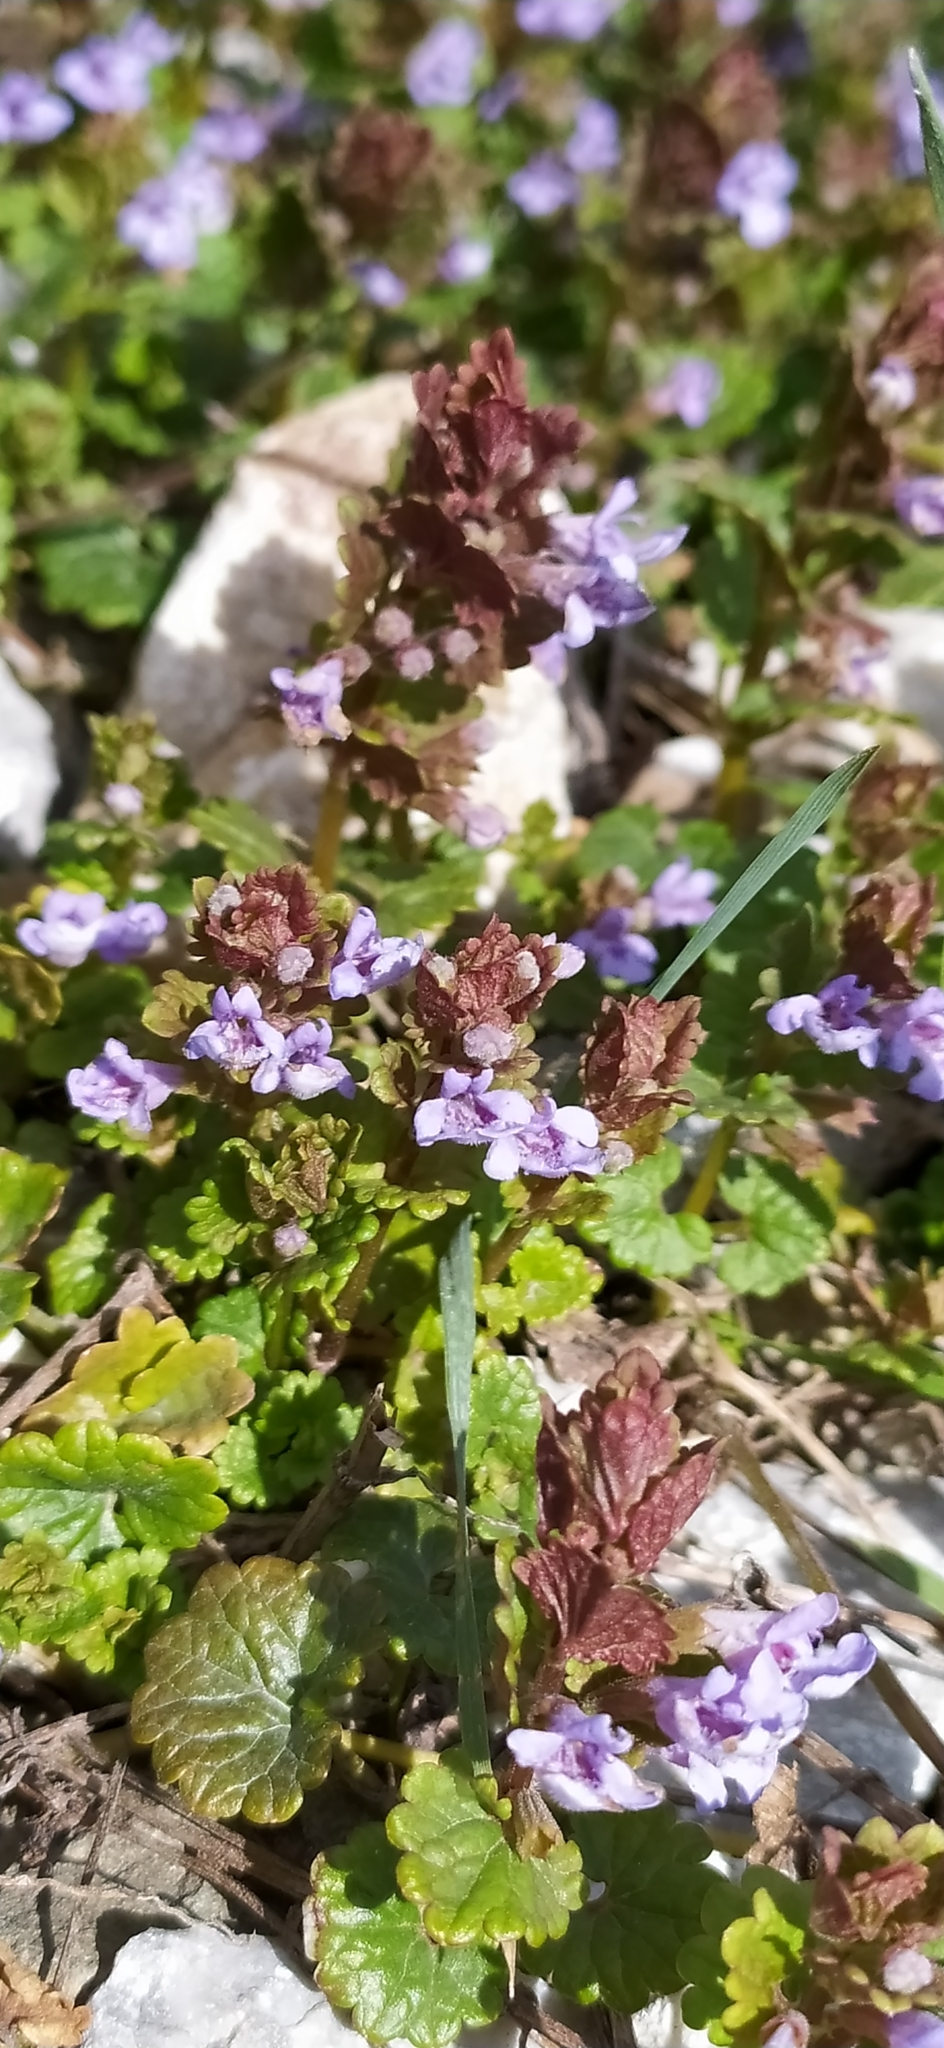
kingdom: Plantae
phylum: Tracheophyta
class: Magnoliopsida
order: Lamiales
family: Lamiaceae
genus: Glechoma
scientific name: Glechoma hederacea
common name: Ground ivy
